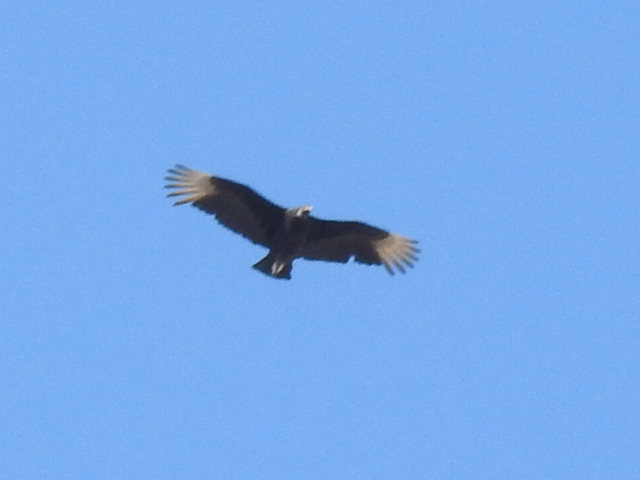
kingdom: Animalia
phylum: Chordata
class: Aves
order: Accipitriformes
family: Cathartidae
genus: Coragyps
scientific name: Coragyps atratus
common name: Black vulture
